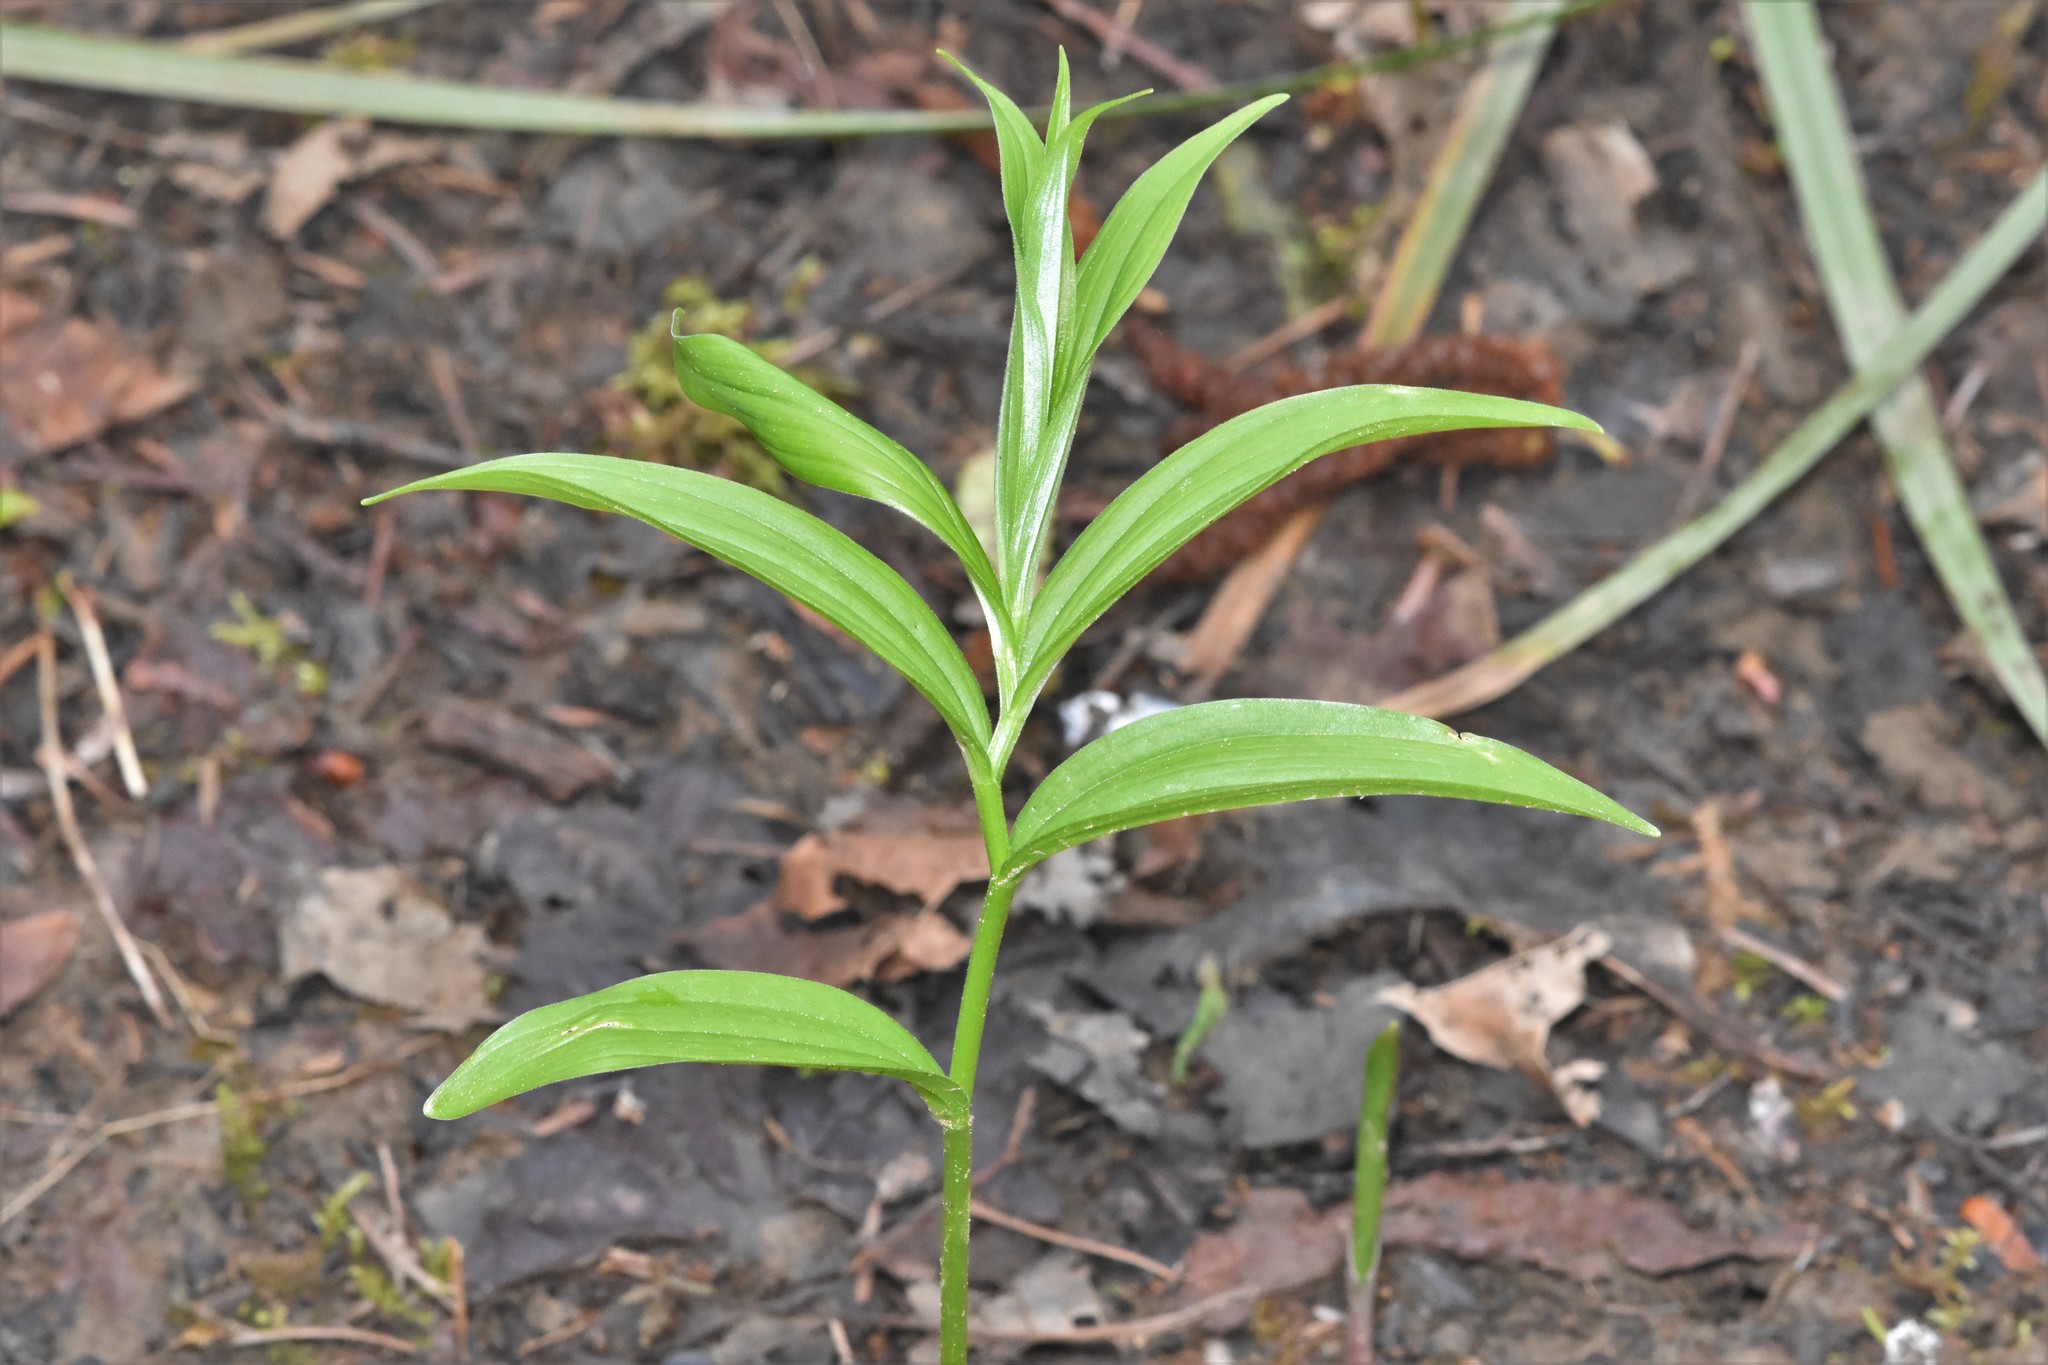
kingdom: Plantae
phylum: Tracheophyta
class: Liliopsida
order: Asparagales
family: Asparagaceae
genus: Maianthemum
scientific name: Maianthemum stellatum
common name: Little false solomon's seal
